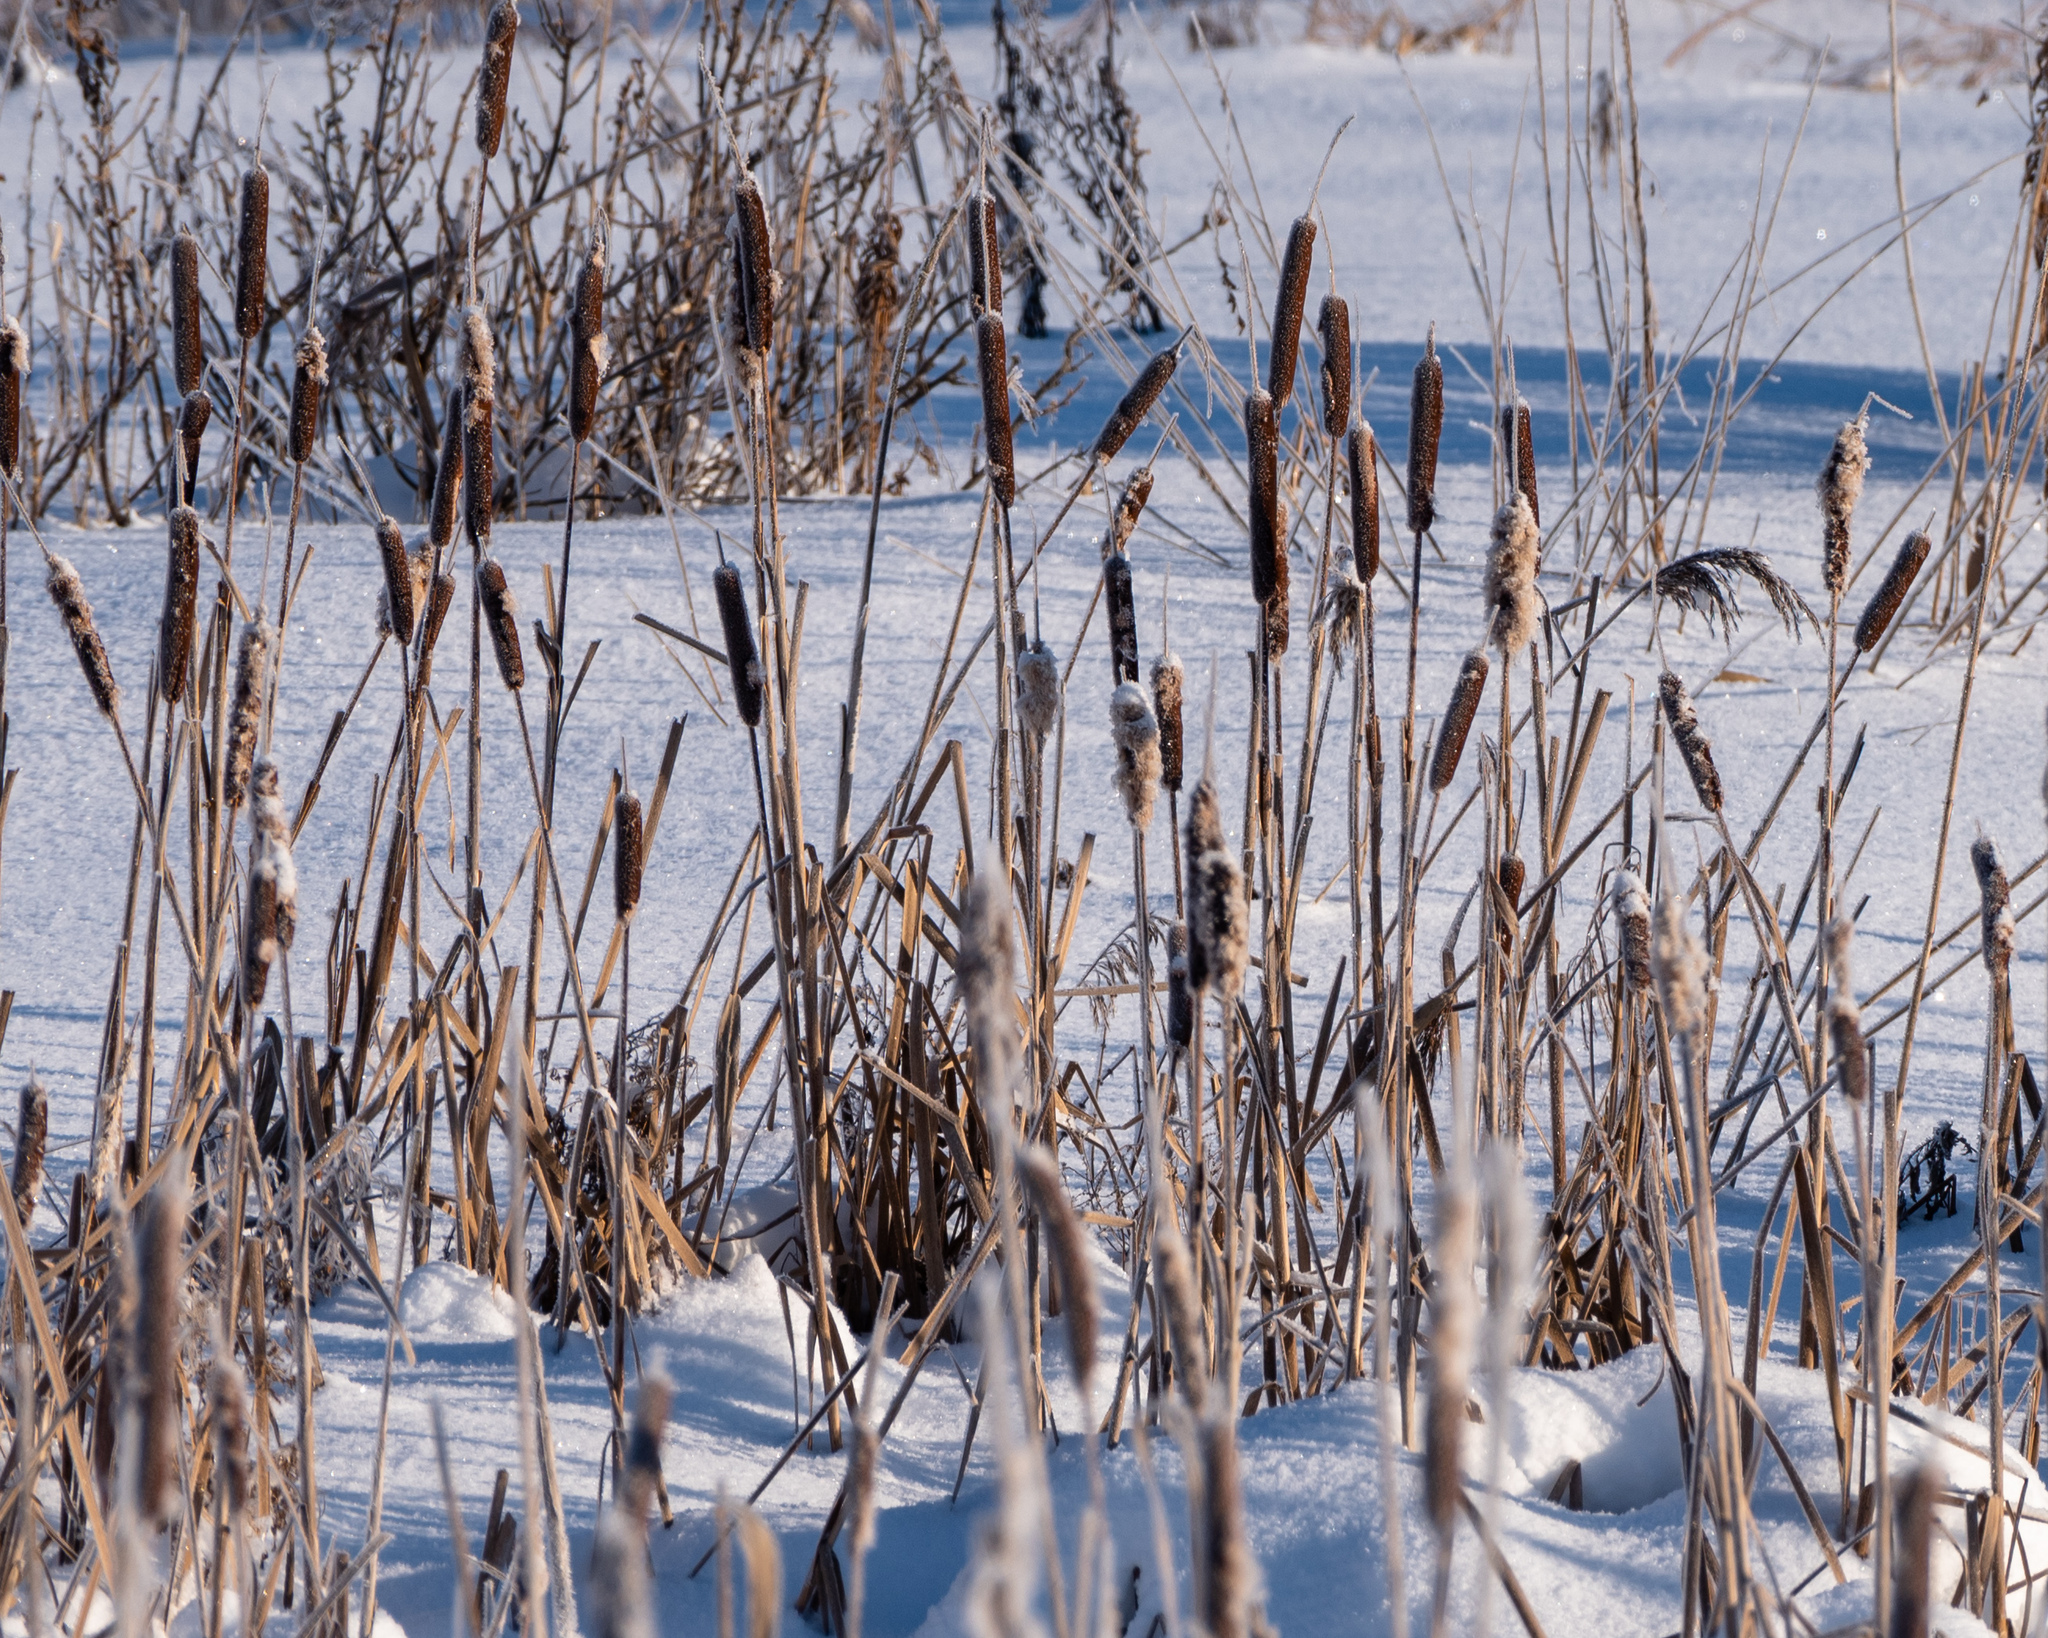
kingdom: Plantae
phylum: Tracheophyta
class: Liliopsida
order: Poales
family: Typhaceae
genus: Typha
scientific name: Typha latifolia
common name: Broadleaf cattail
